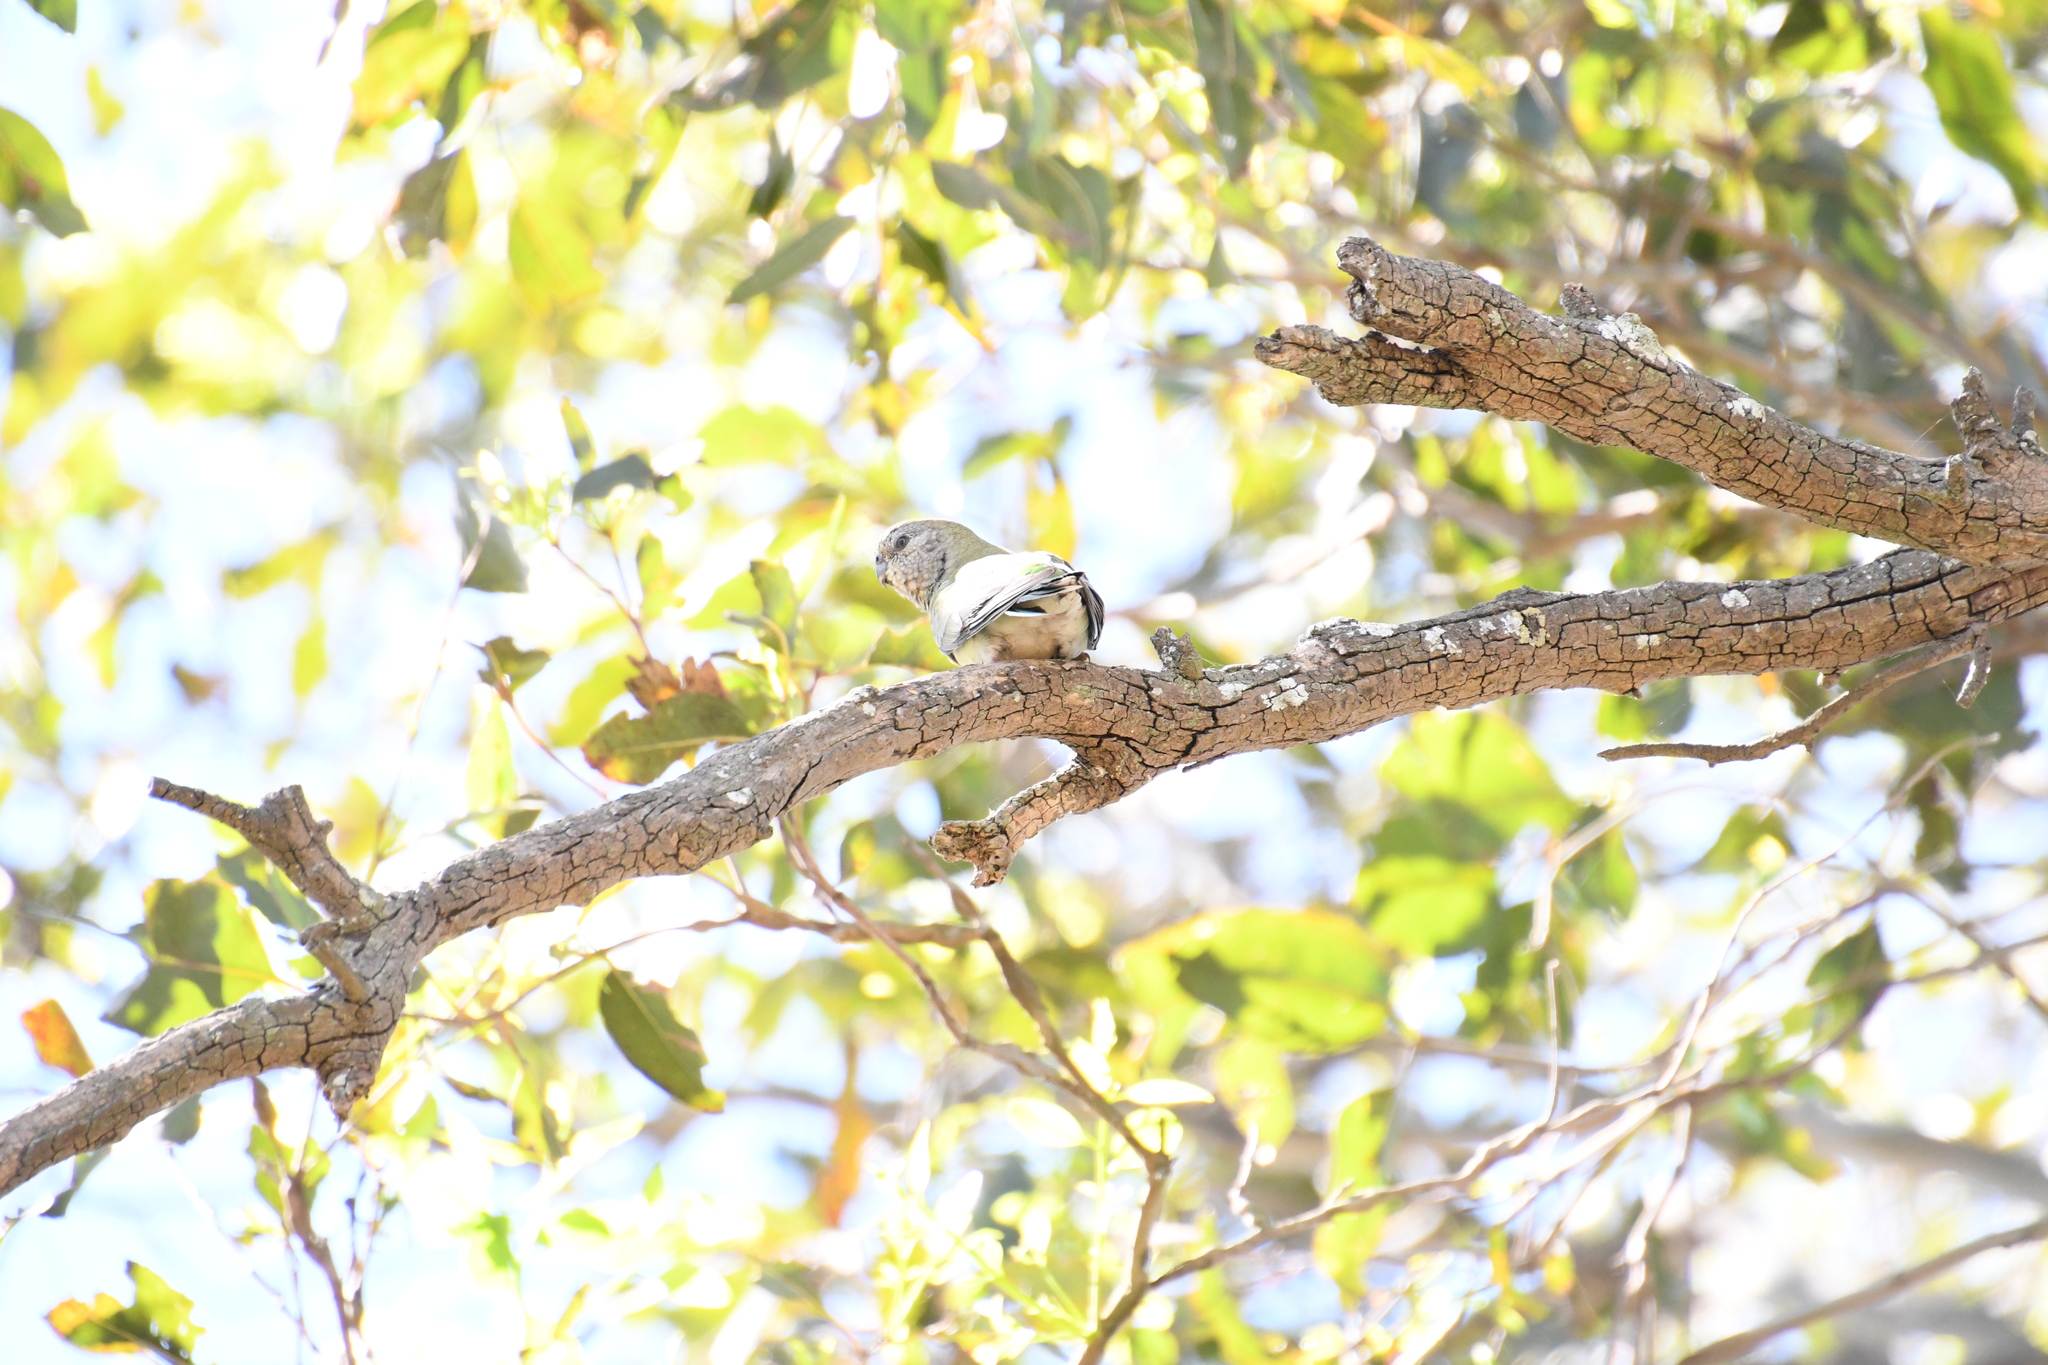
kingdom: Animalia
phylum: Chordata
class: Aves
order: Psittaciformes
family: Psittacidae
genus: Psephotus
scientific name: Psephotus haematonotus
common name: Red-rumped parrot
